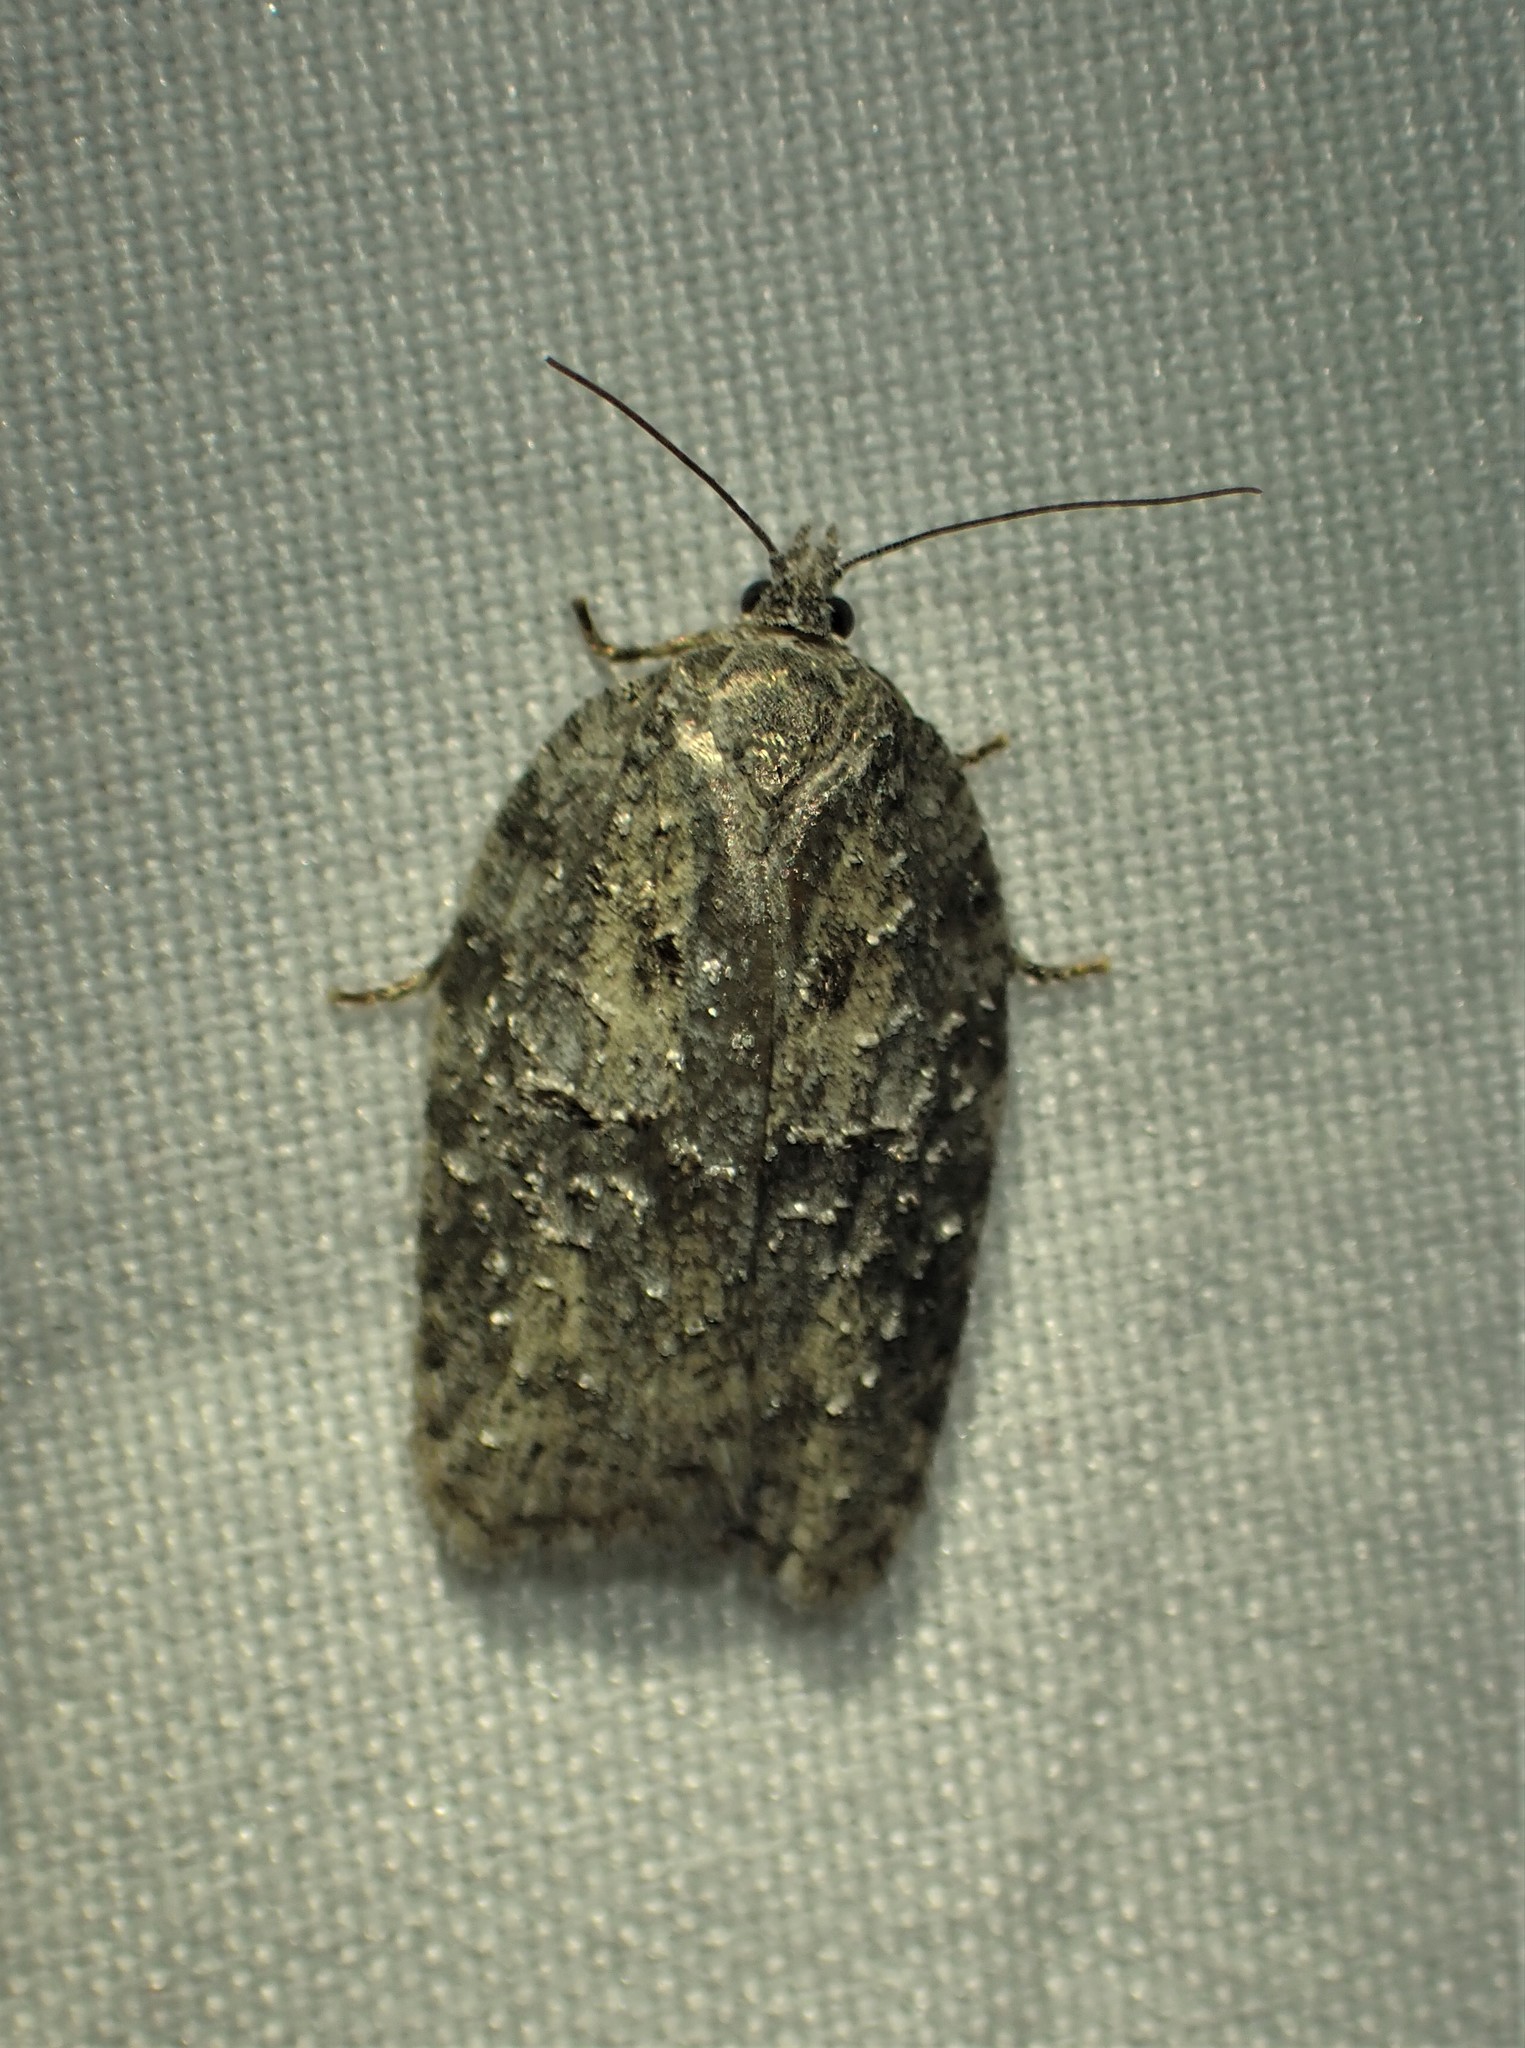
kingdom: Animalia
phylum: Arthropoda
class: Insecta
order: Lepidoptera
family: Tortricidae
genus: Acleris
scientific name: Acleris nigrolinea
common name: Black-lined acleris
